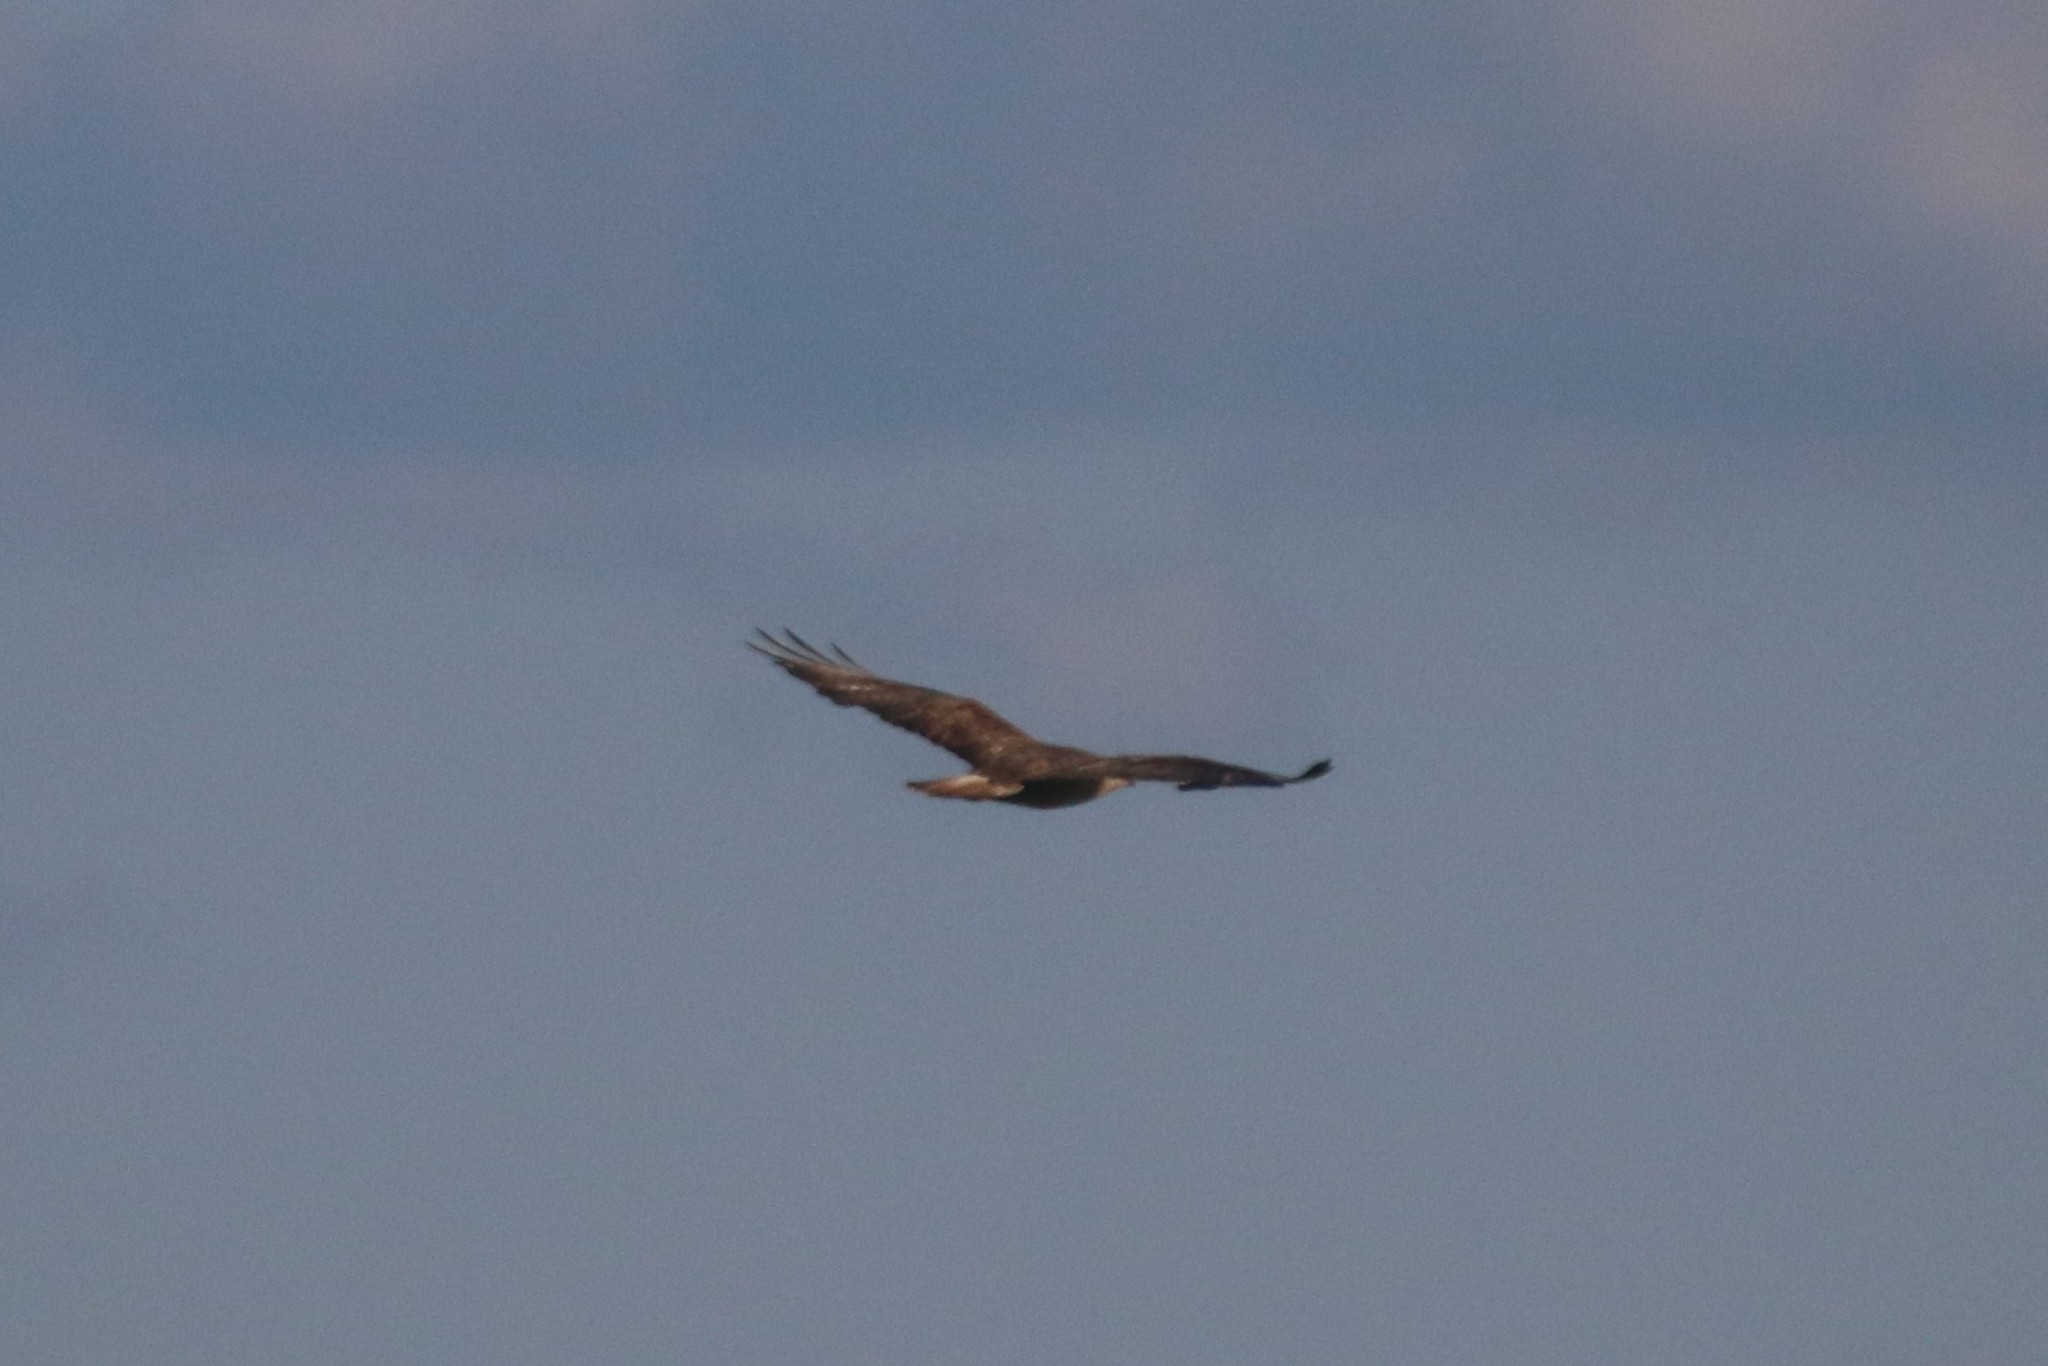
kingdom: Animalia
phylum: Chordata
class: Aves
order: Accipitriformes
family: Accipitridae
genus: Buteo
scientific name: Buteo buteo
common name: Common buzzard
